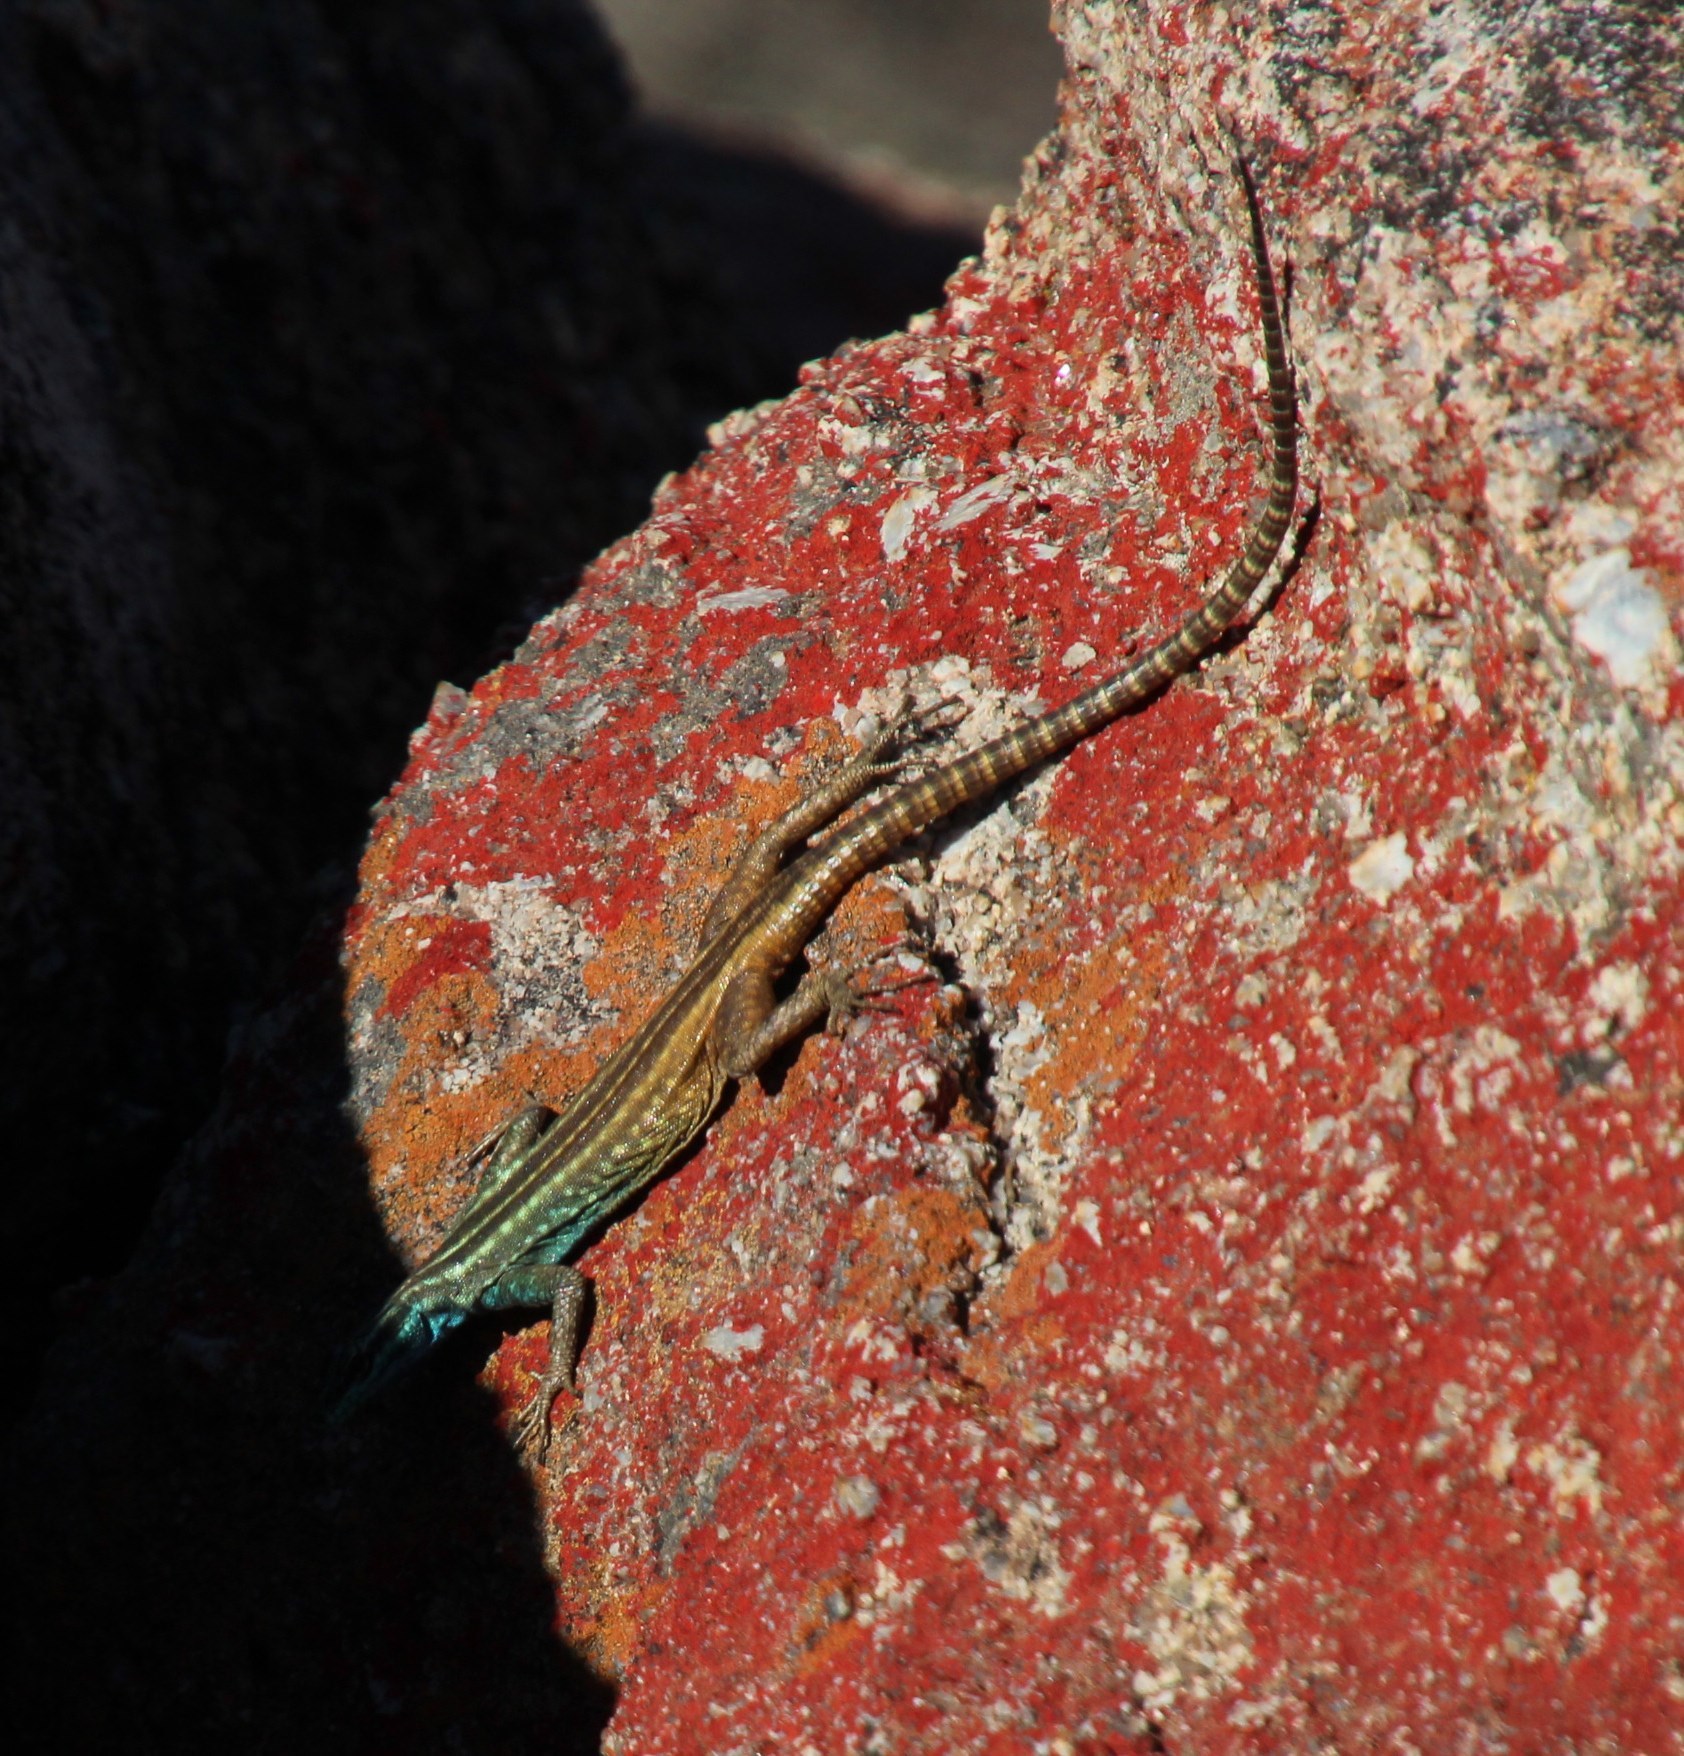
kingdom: Animalia
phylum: Chordata
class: Squamata
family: Cordylidae
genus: Platysaurus
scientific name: Platysaurus capensis
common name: Namaqua flat lizard
